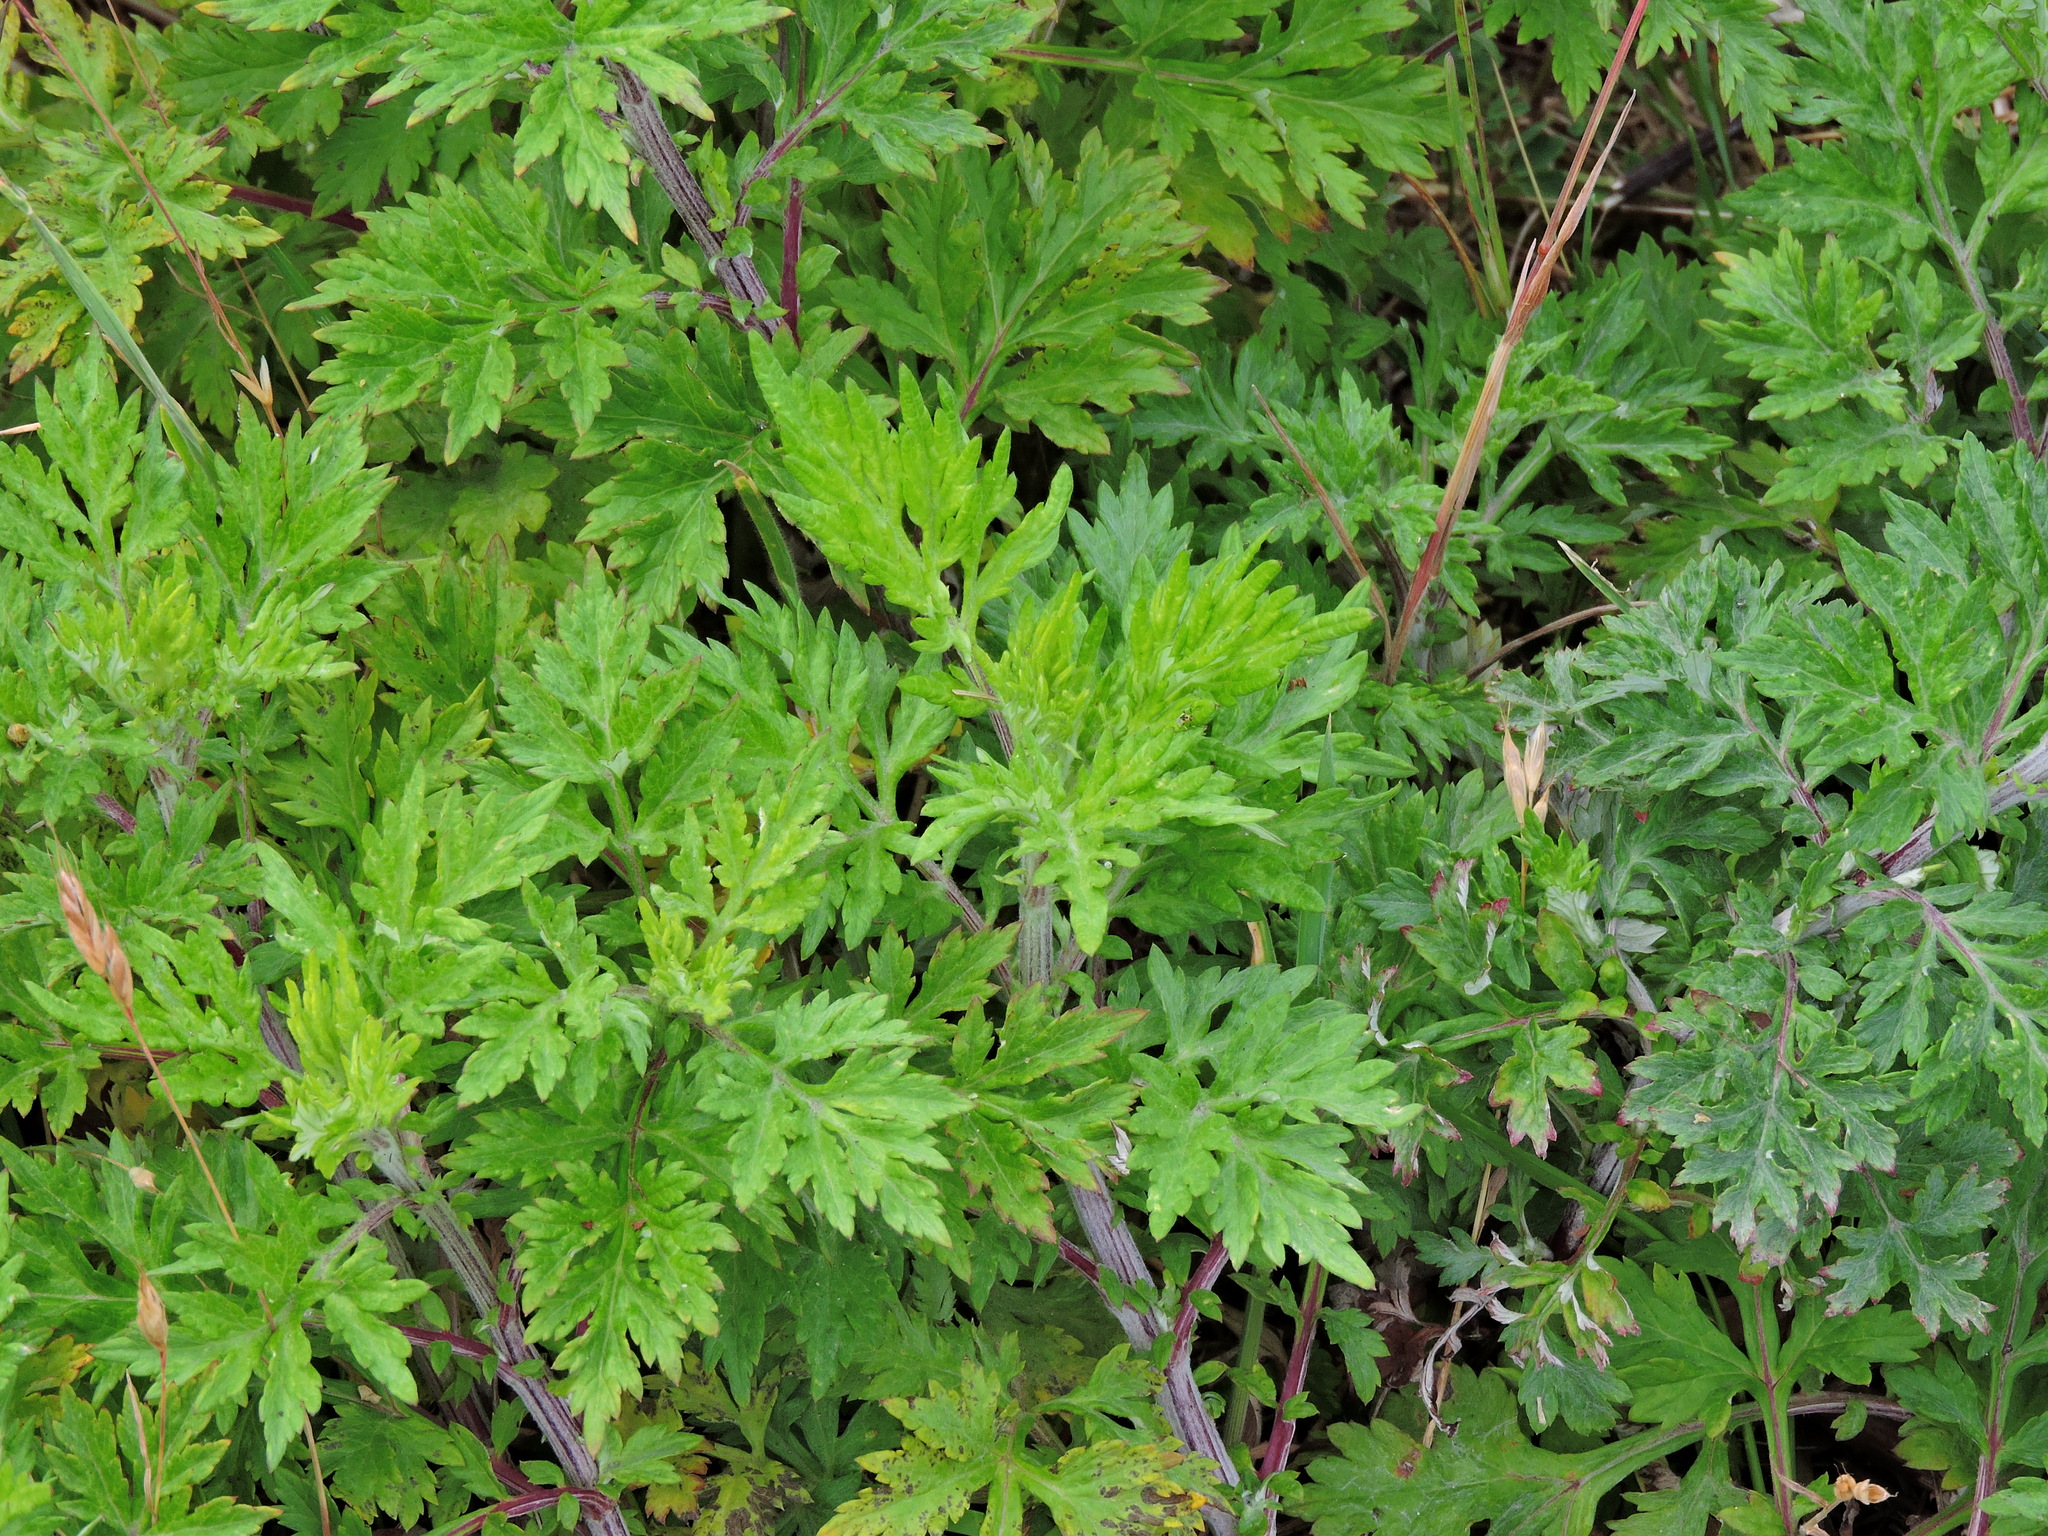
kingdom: Plantae
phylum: Tracheophyta
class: Magnoliopsida
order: Asterales
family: Asteraceae
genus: Artemisia
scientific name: Artemisia vulgaris
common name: Mugwort
